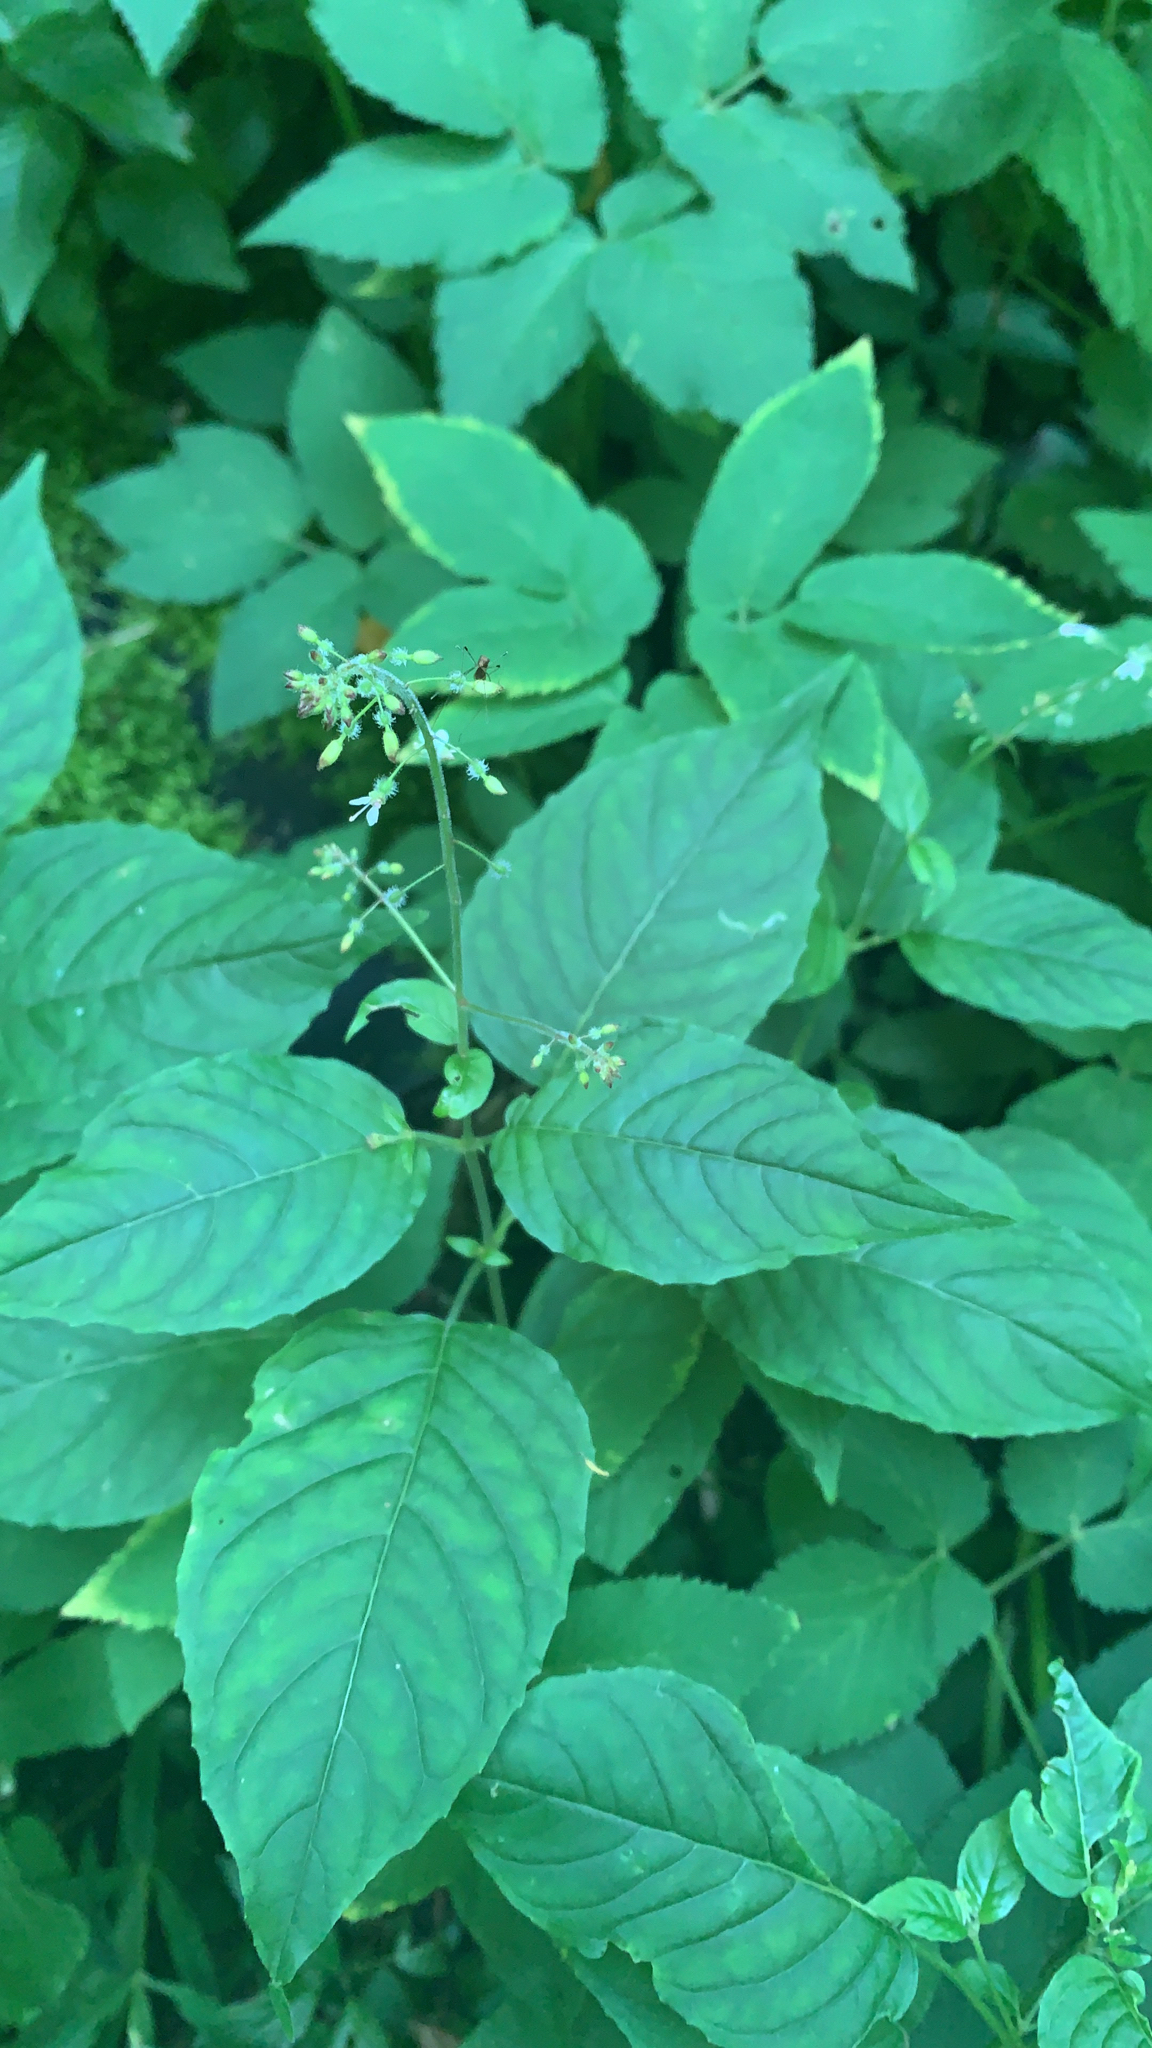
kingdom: Plantae
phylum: Tracheophyta
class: Magnoliopsida
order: Myrtales
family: Onagraceae
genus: Circaea
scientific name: Circaea lutetiana
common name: Enchanter's-nightshade
